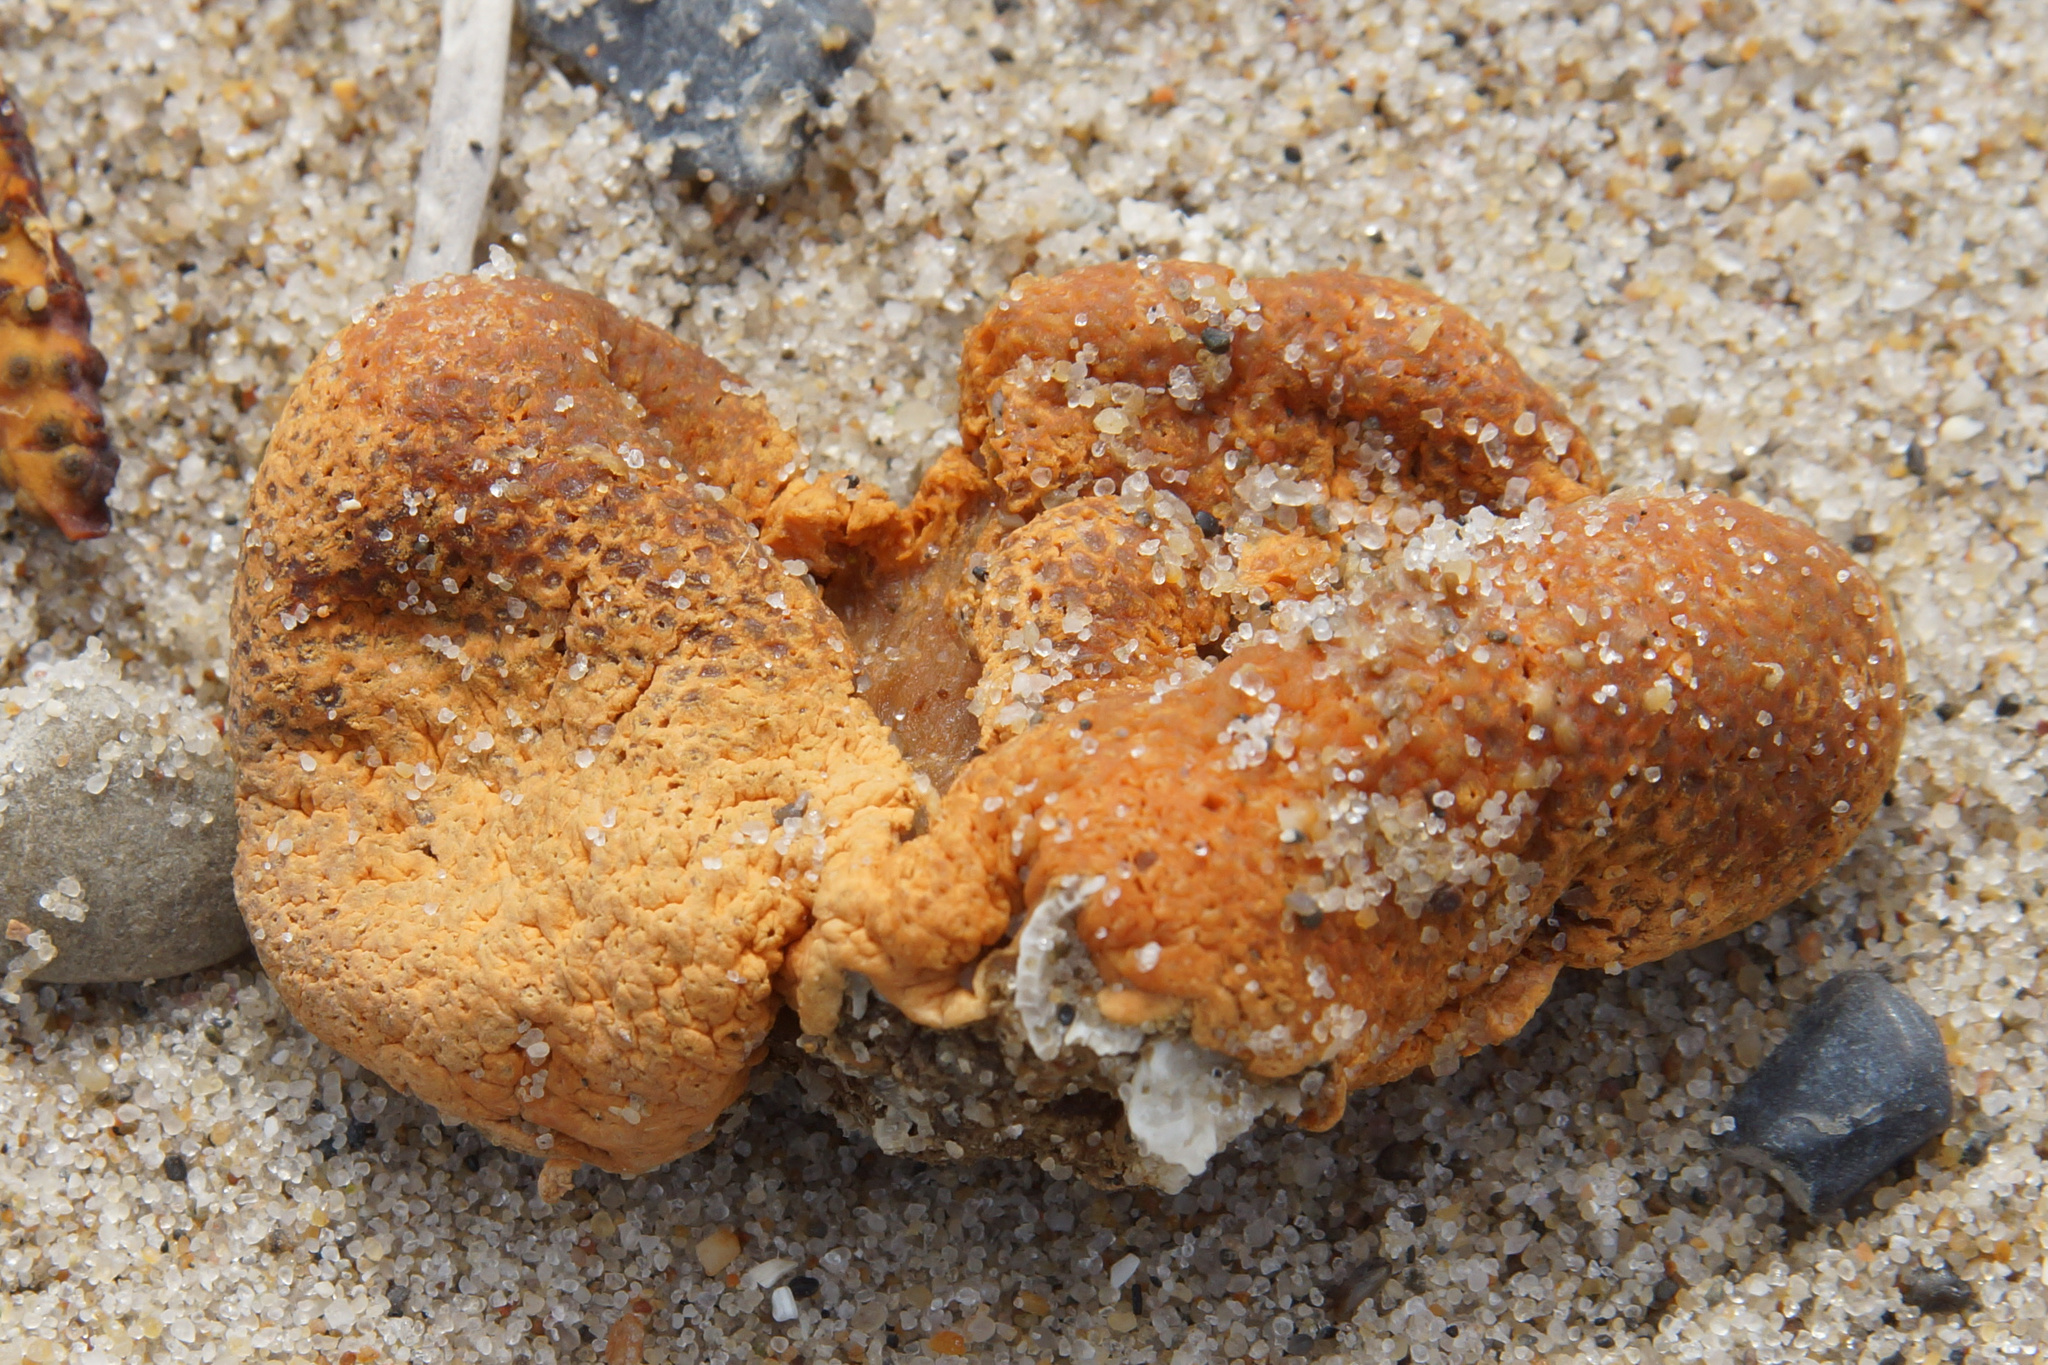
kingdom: Animalia
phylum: Cnidaria
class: Anthozoa
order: Malacalcyonacea
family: Alcyoniidae
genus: Alcyonium
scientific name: Alcyonium digitatum
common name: Dead man's fingers
